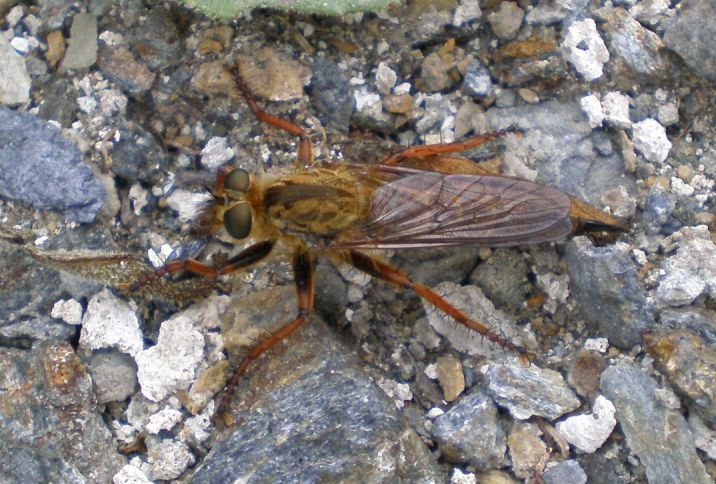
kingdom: Animalia
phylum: Arthropoda
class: Insecta
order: Diptera
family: Asilidae
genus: Machimus
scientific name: Machimus chrysitis
